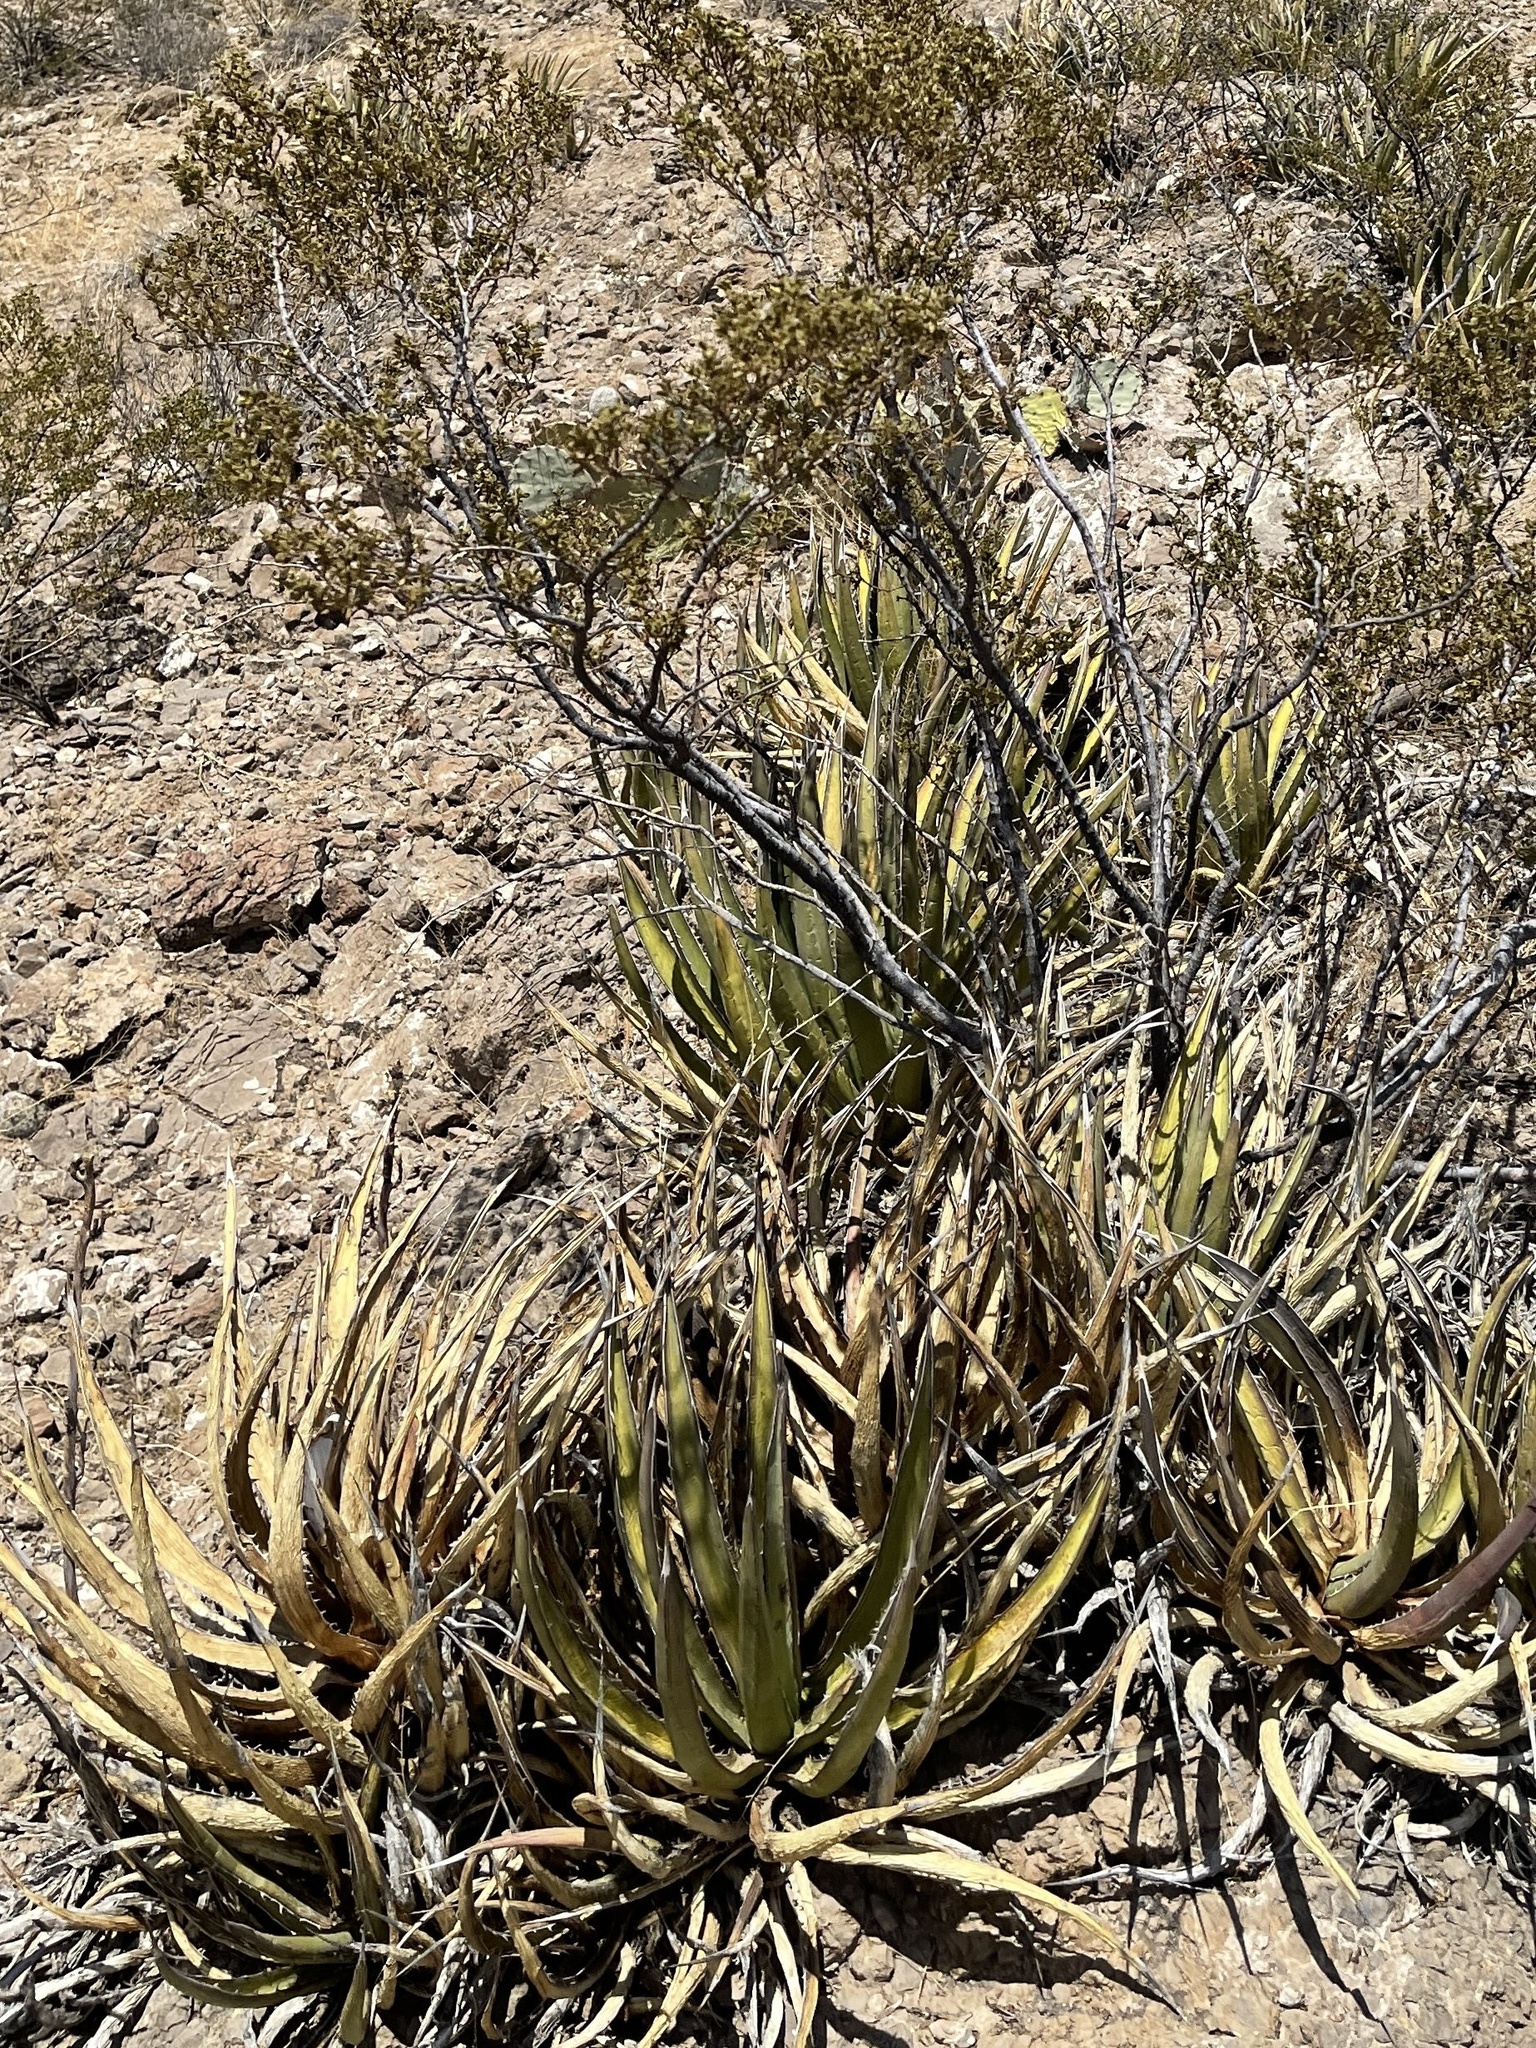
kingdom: Plantae
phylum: Tracheophyta
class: Liliopsida
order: Asparagales
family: Asparagaceae
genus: Agave
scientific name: Agave lechuguilla
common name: Lecheguilla agave
